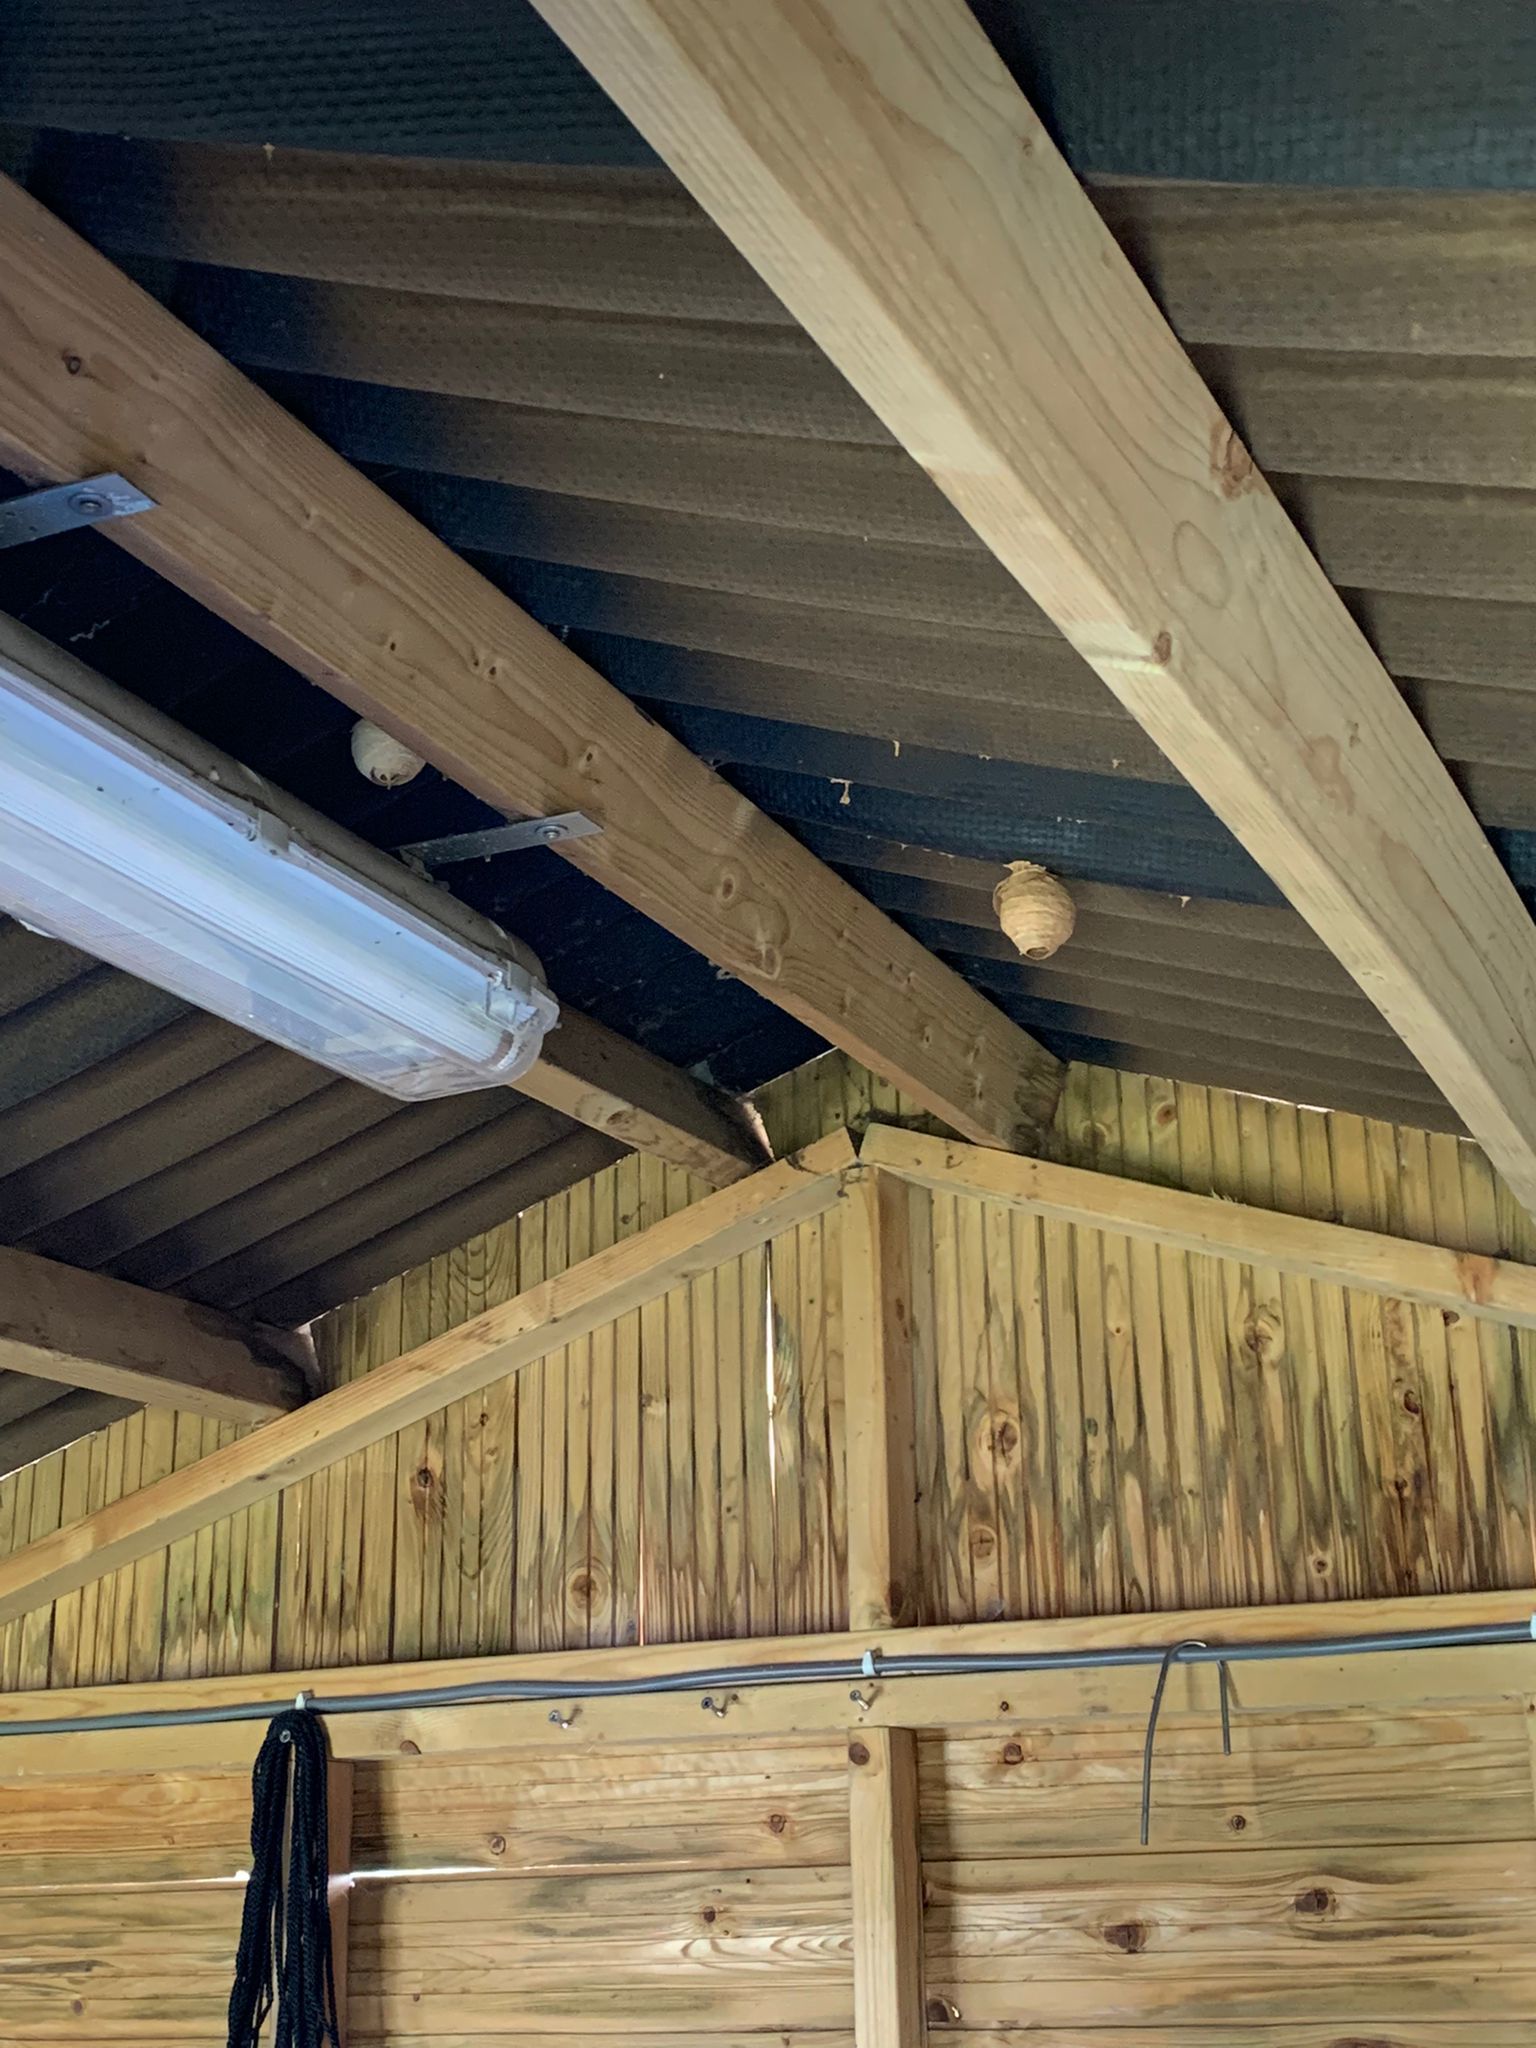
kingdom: Animalia
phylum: Arthropoda
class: Insecta
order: Hymenoptera
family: Vespidae
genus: Vespa
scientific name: Vespa velutina
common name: Asian hornet
